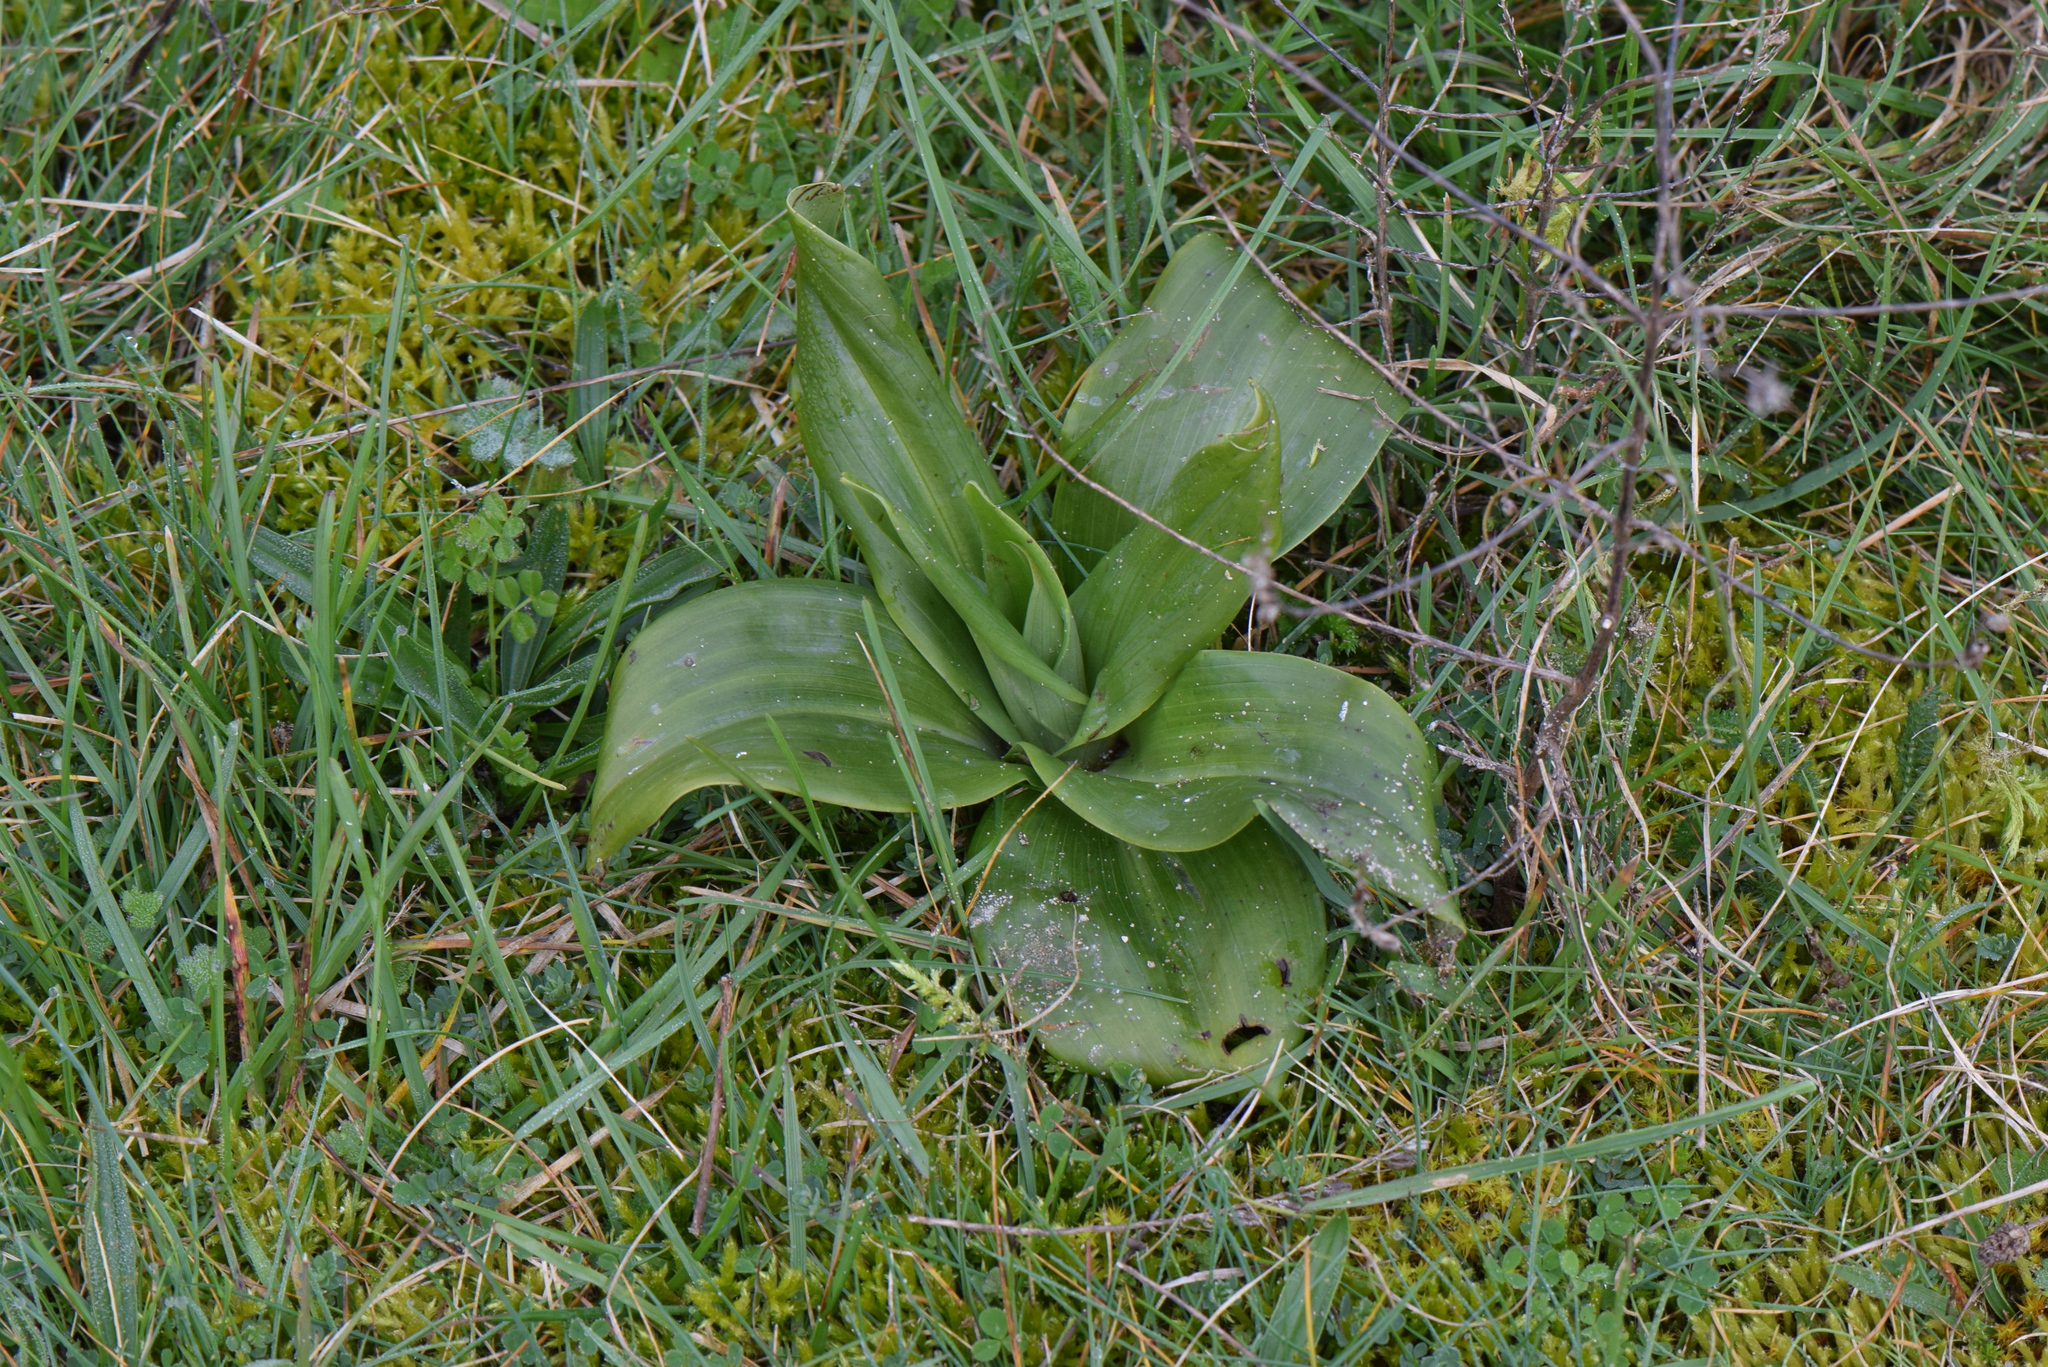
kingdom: Plantae
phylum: Tracheophyta
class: Liliopsida
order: Asparagales
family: Orchidaceae
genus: Himantoglossum
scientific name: Himantoglossum hircinum
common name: Lizard orchid
